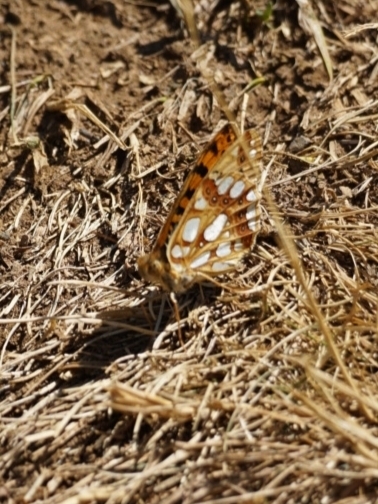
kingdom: Animalia
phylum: Arthropoda
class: Insecta
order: Lepidoptera
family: Nymphalidae
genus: Issoria
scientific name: Issoria lathonia
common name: Queen of spain fritillary
